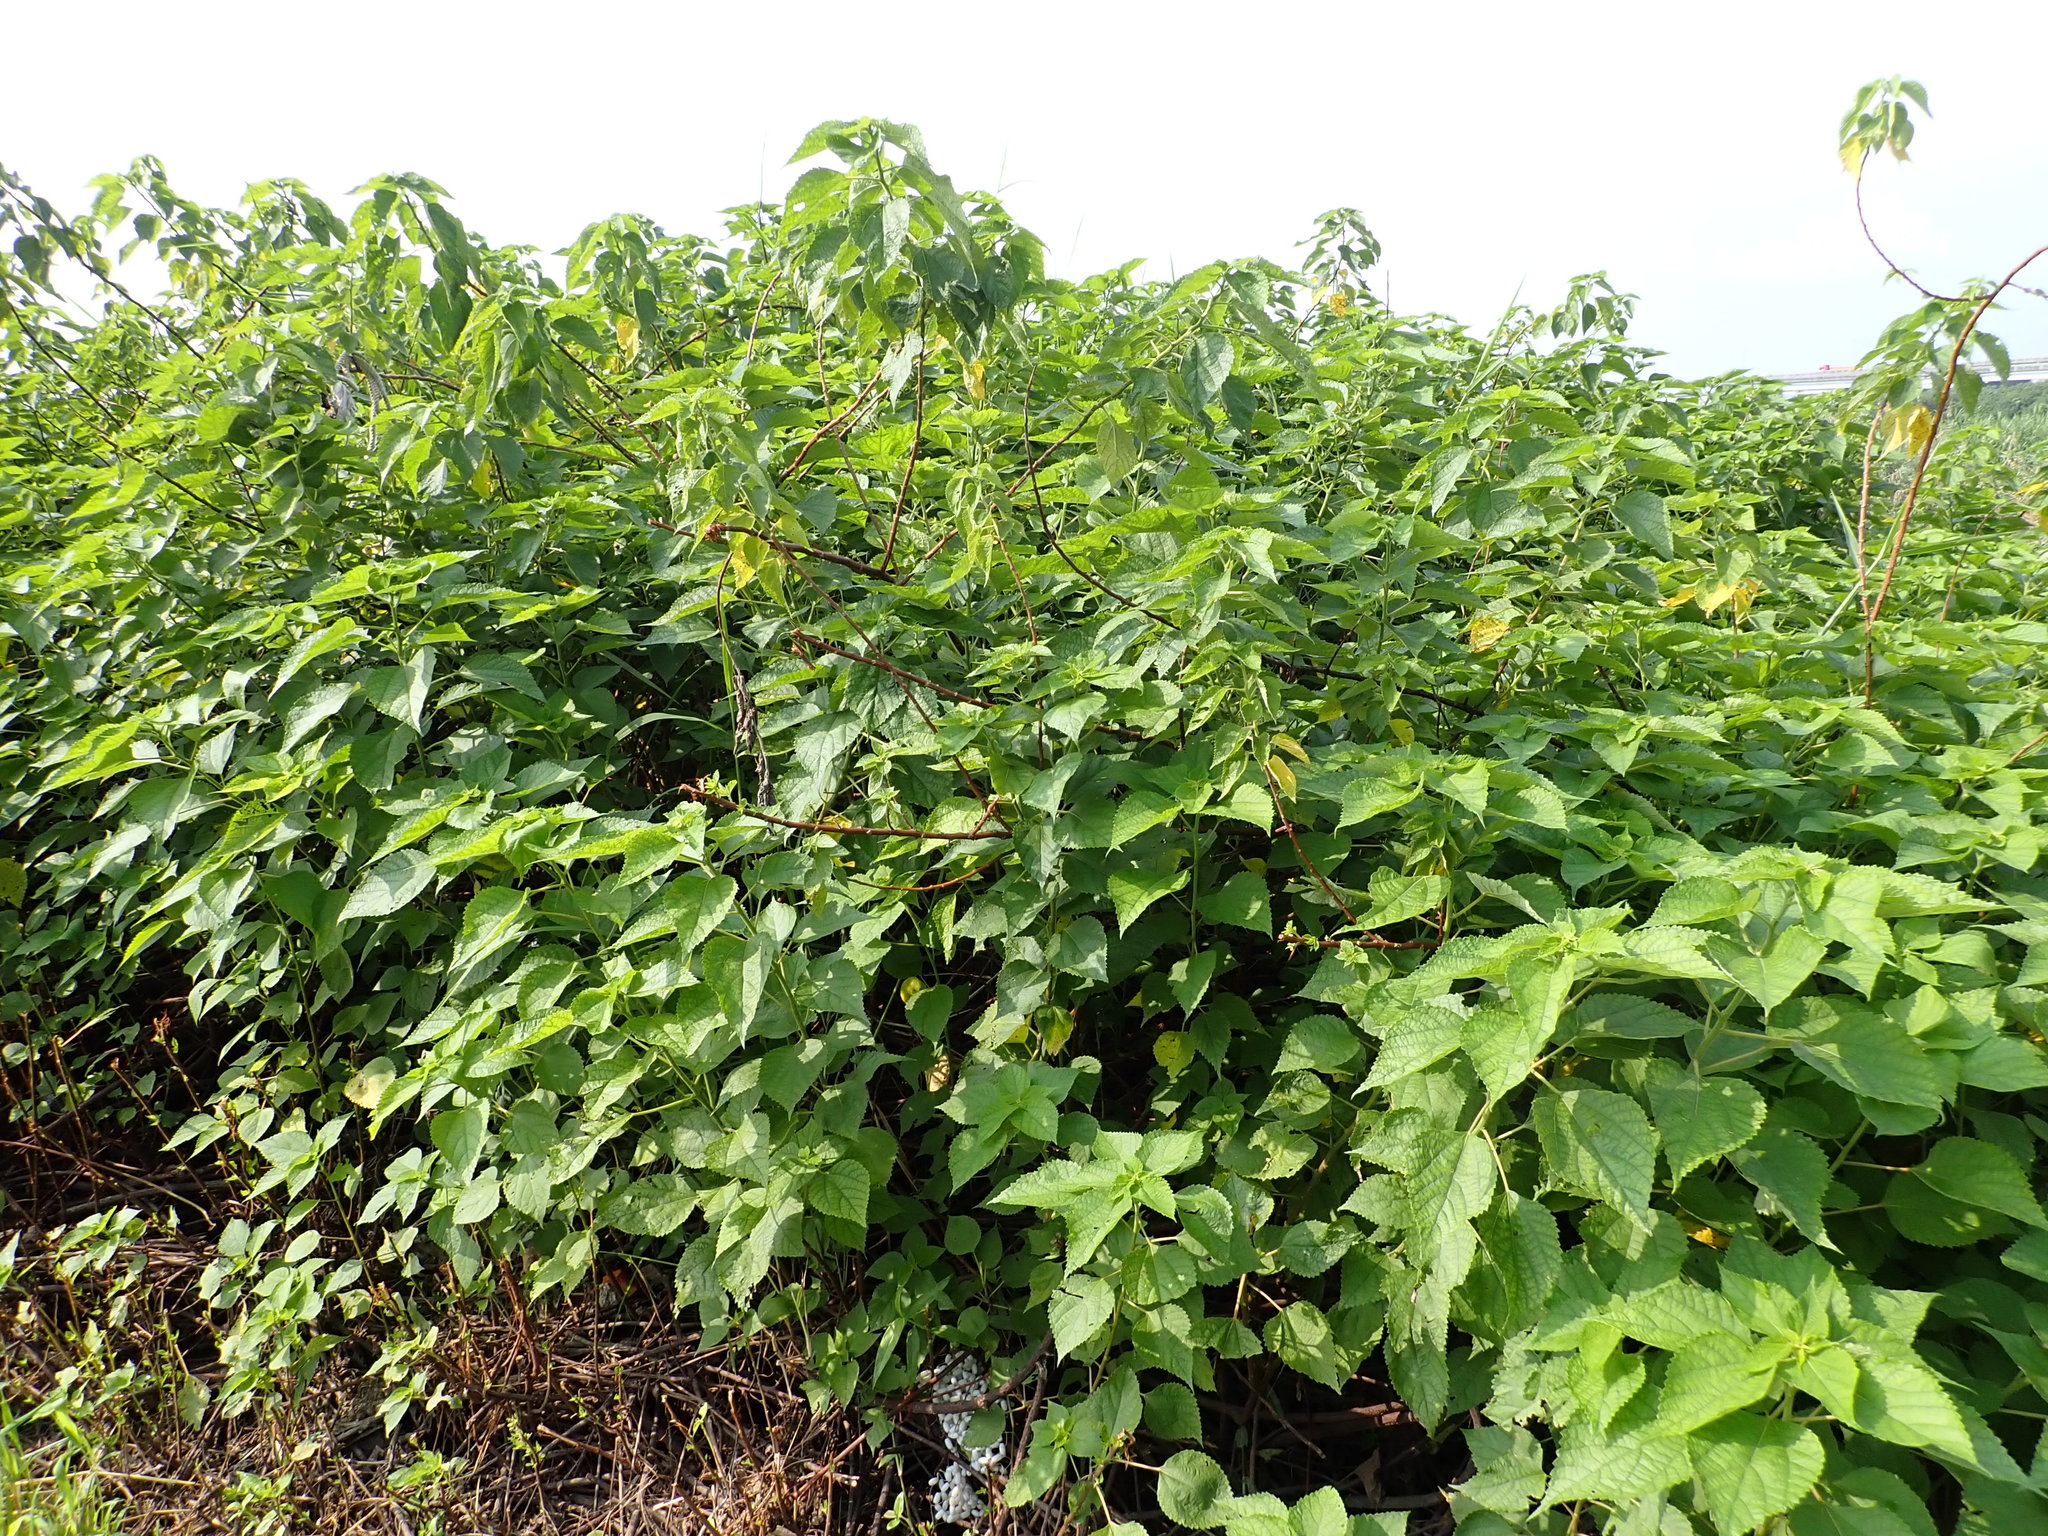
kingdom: Plantae
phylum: Tracheophyta
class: Magnoliopsida
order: Rosales
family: Urticaceae
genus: Boehmeria
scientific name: Boehmeria nivea
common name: Ramie chinese grass
